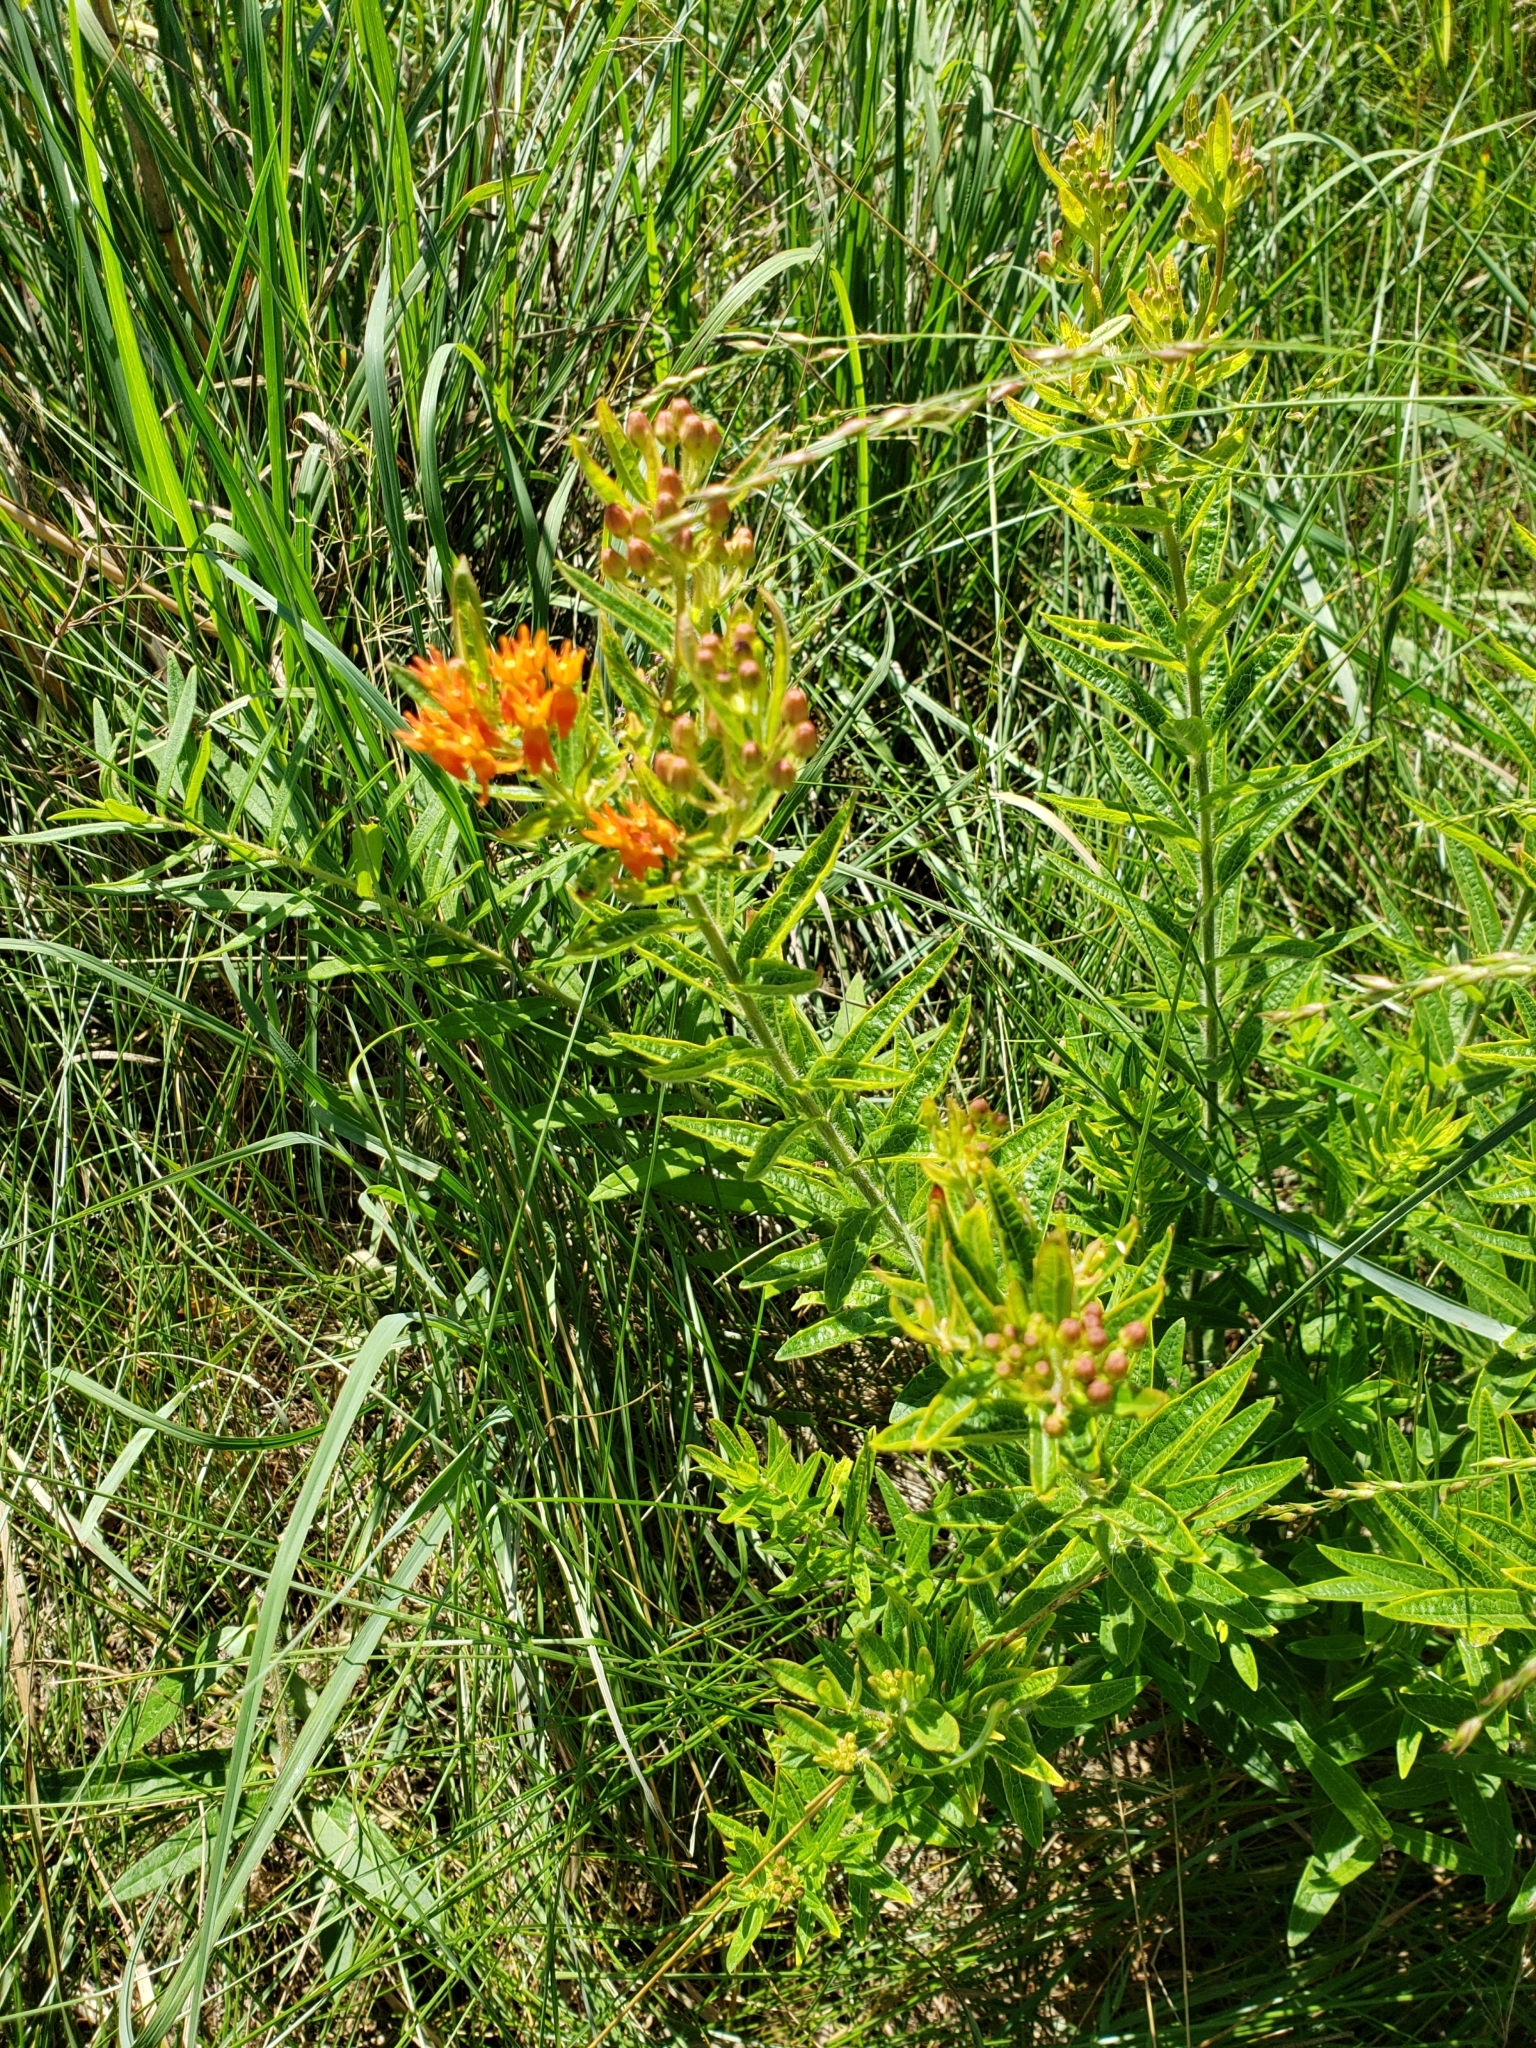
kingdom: Plantae
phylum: Tracheophyta
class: Magnoliopsida
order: Gentianales
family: Apocynaceae
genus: Asclepias
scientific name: Asclepias tuberosa
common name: Butterfly milkweed
